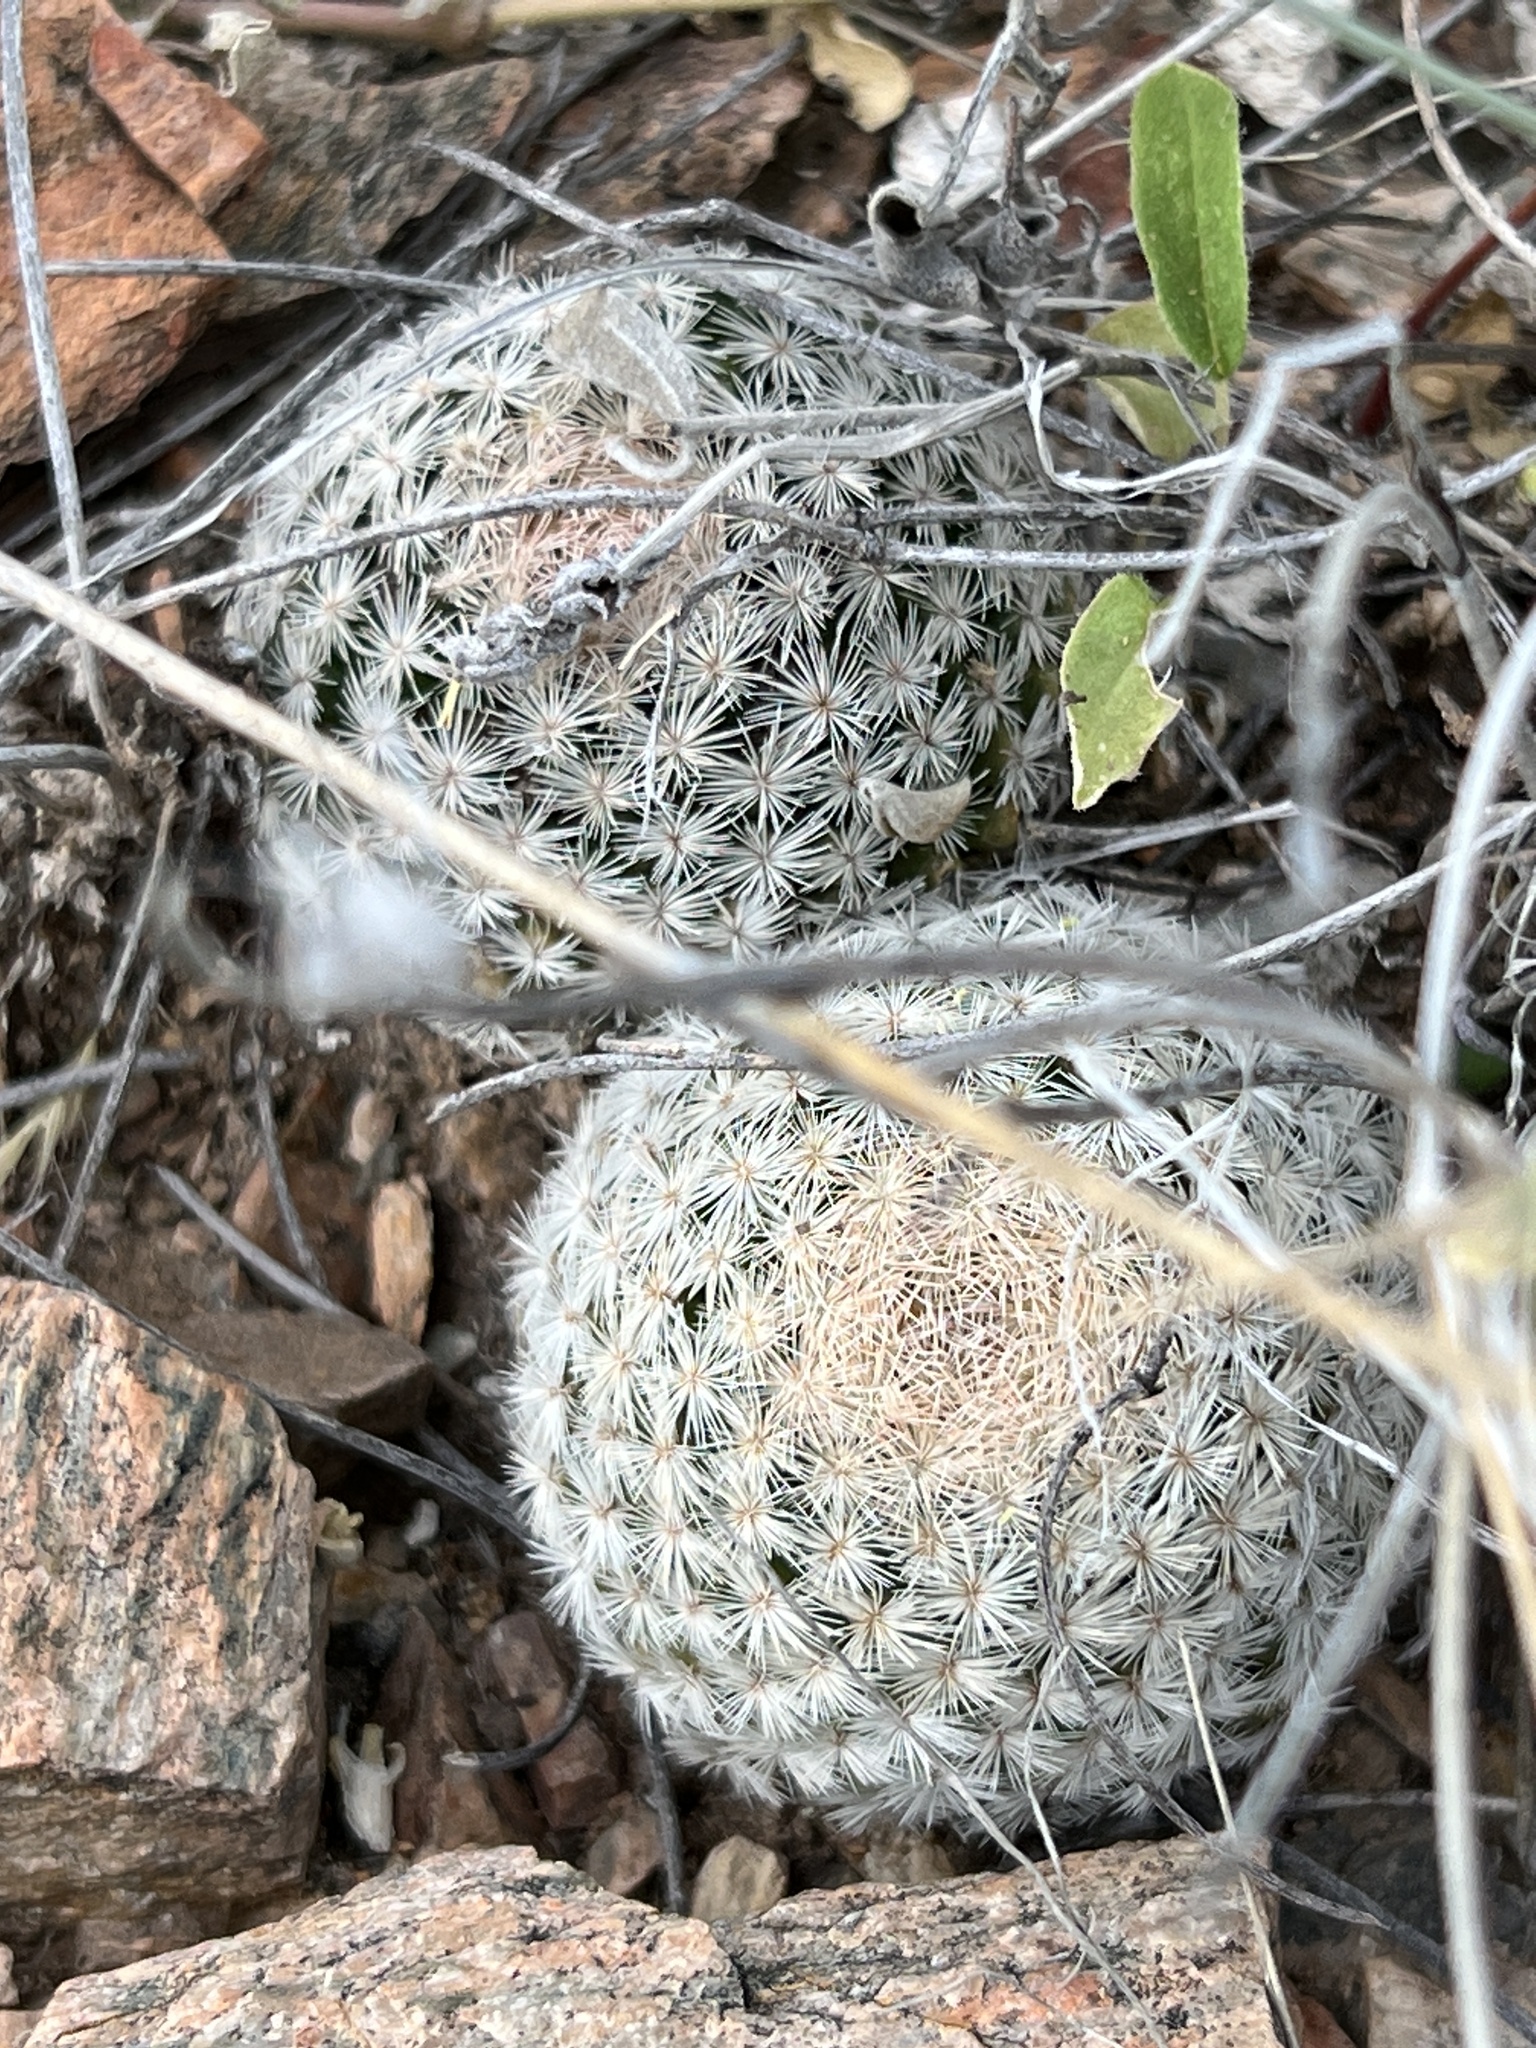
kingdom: Plantae
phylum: Tracheophyta
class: Magnoliopsida
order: Caryophyllales
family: Cactaceae
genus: Mammillaria
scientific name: Mammillaria lasiacantha
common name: Lace-spine nipple cactus
